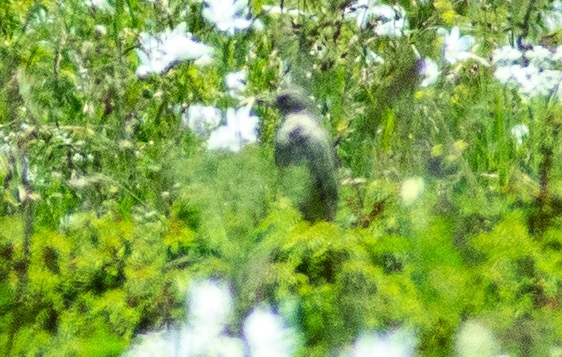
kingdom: Animalia
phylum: Chordata
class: Aves
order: Passeriformes
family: Motacillidae
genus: Anthus
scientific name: Anthus spinoletta
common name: Water pipit
